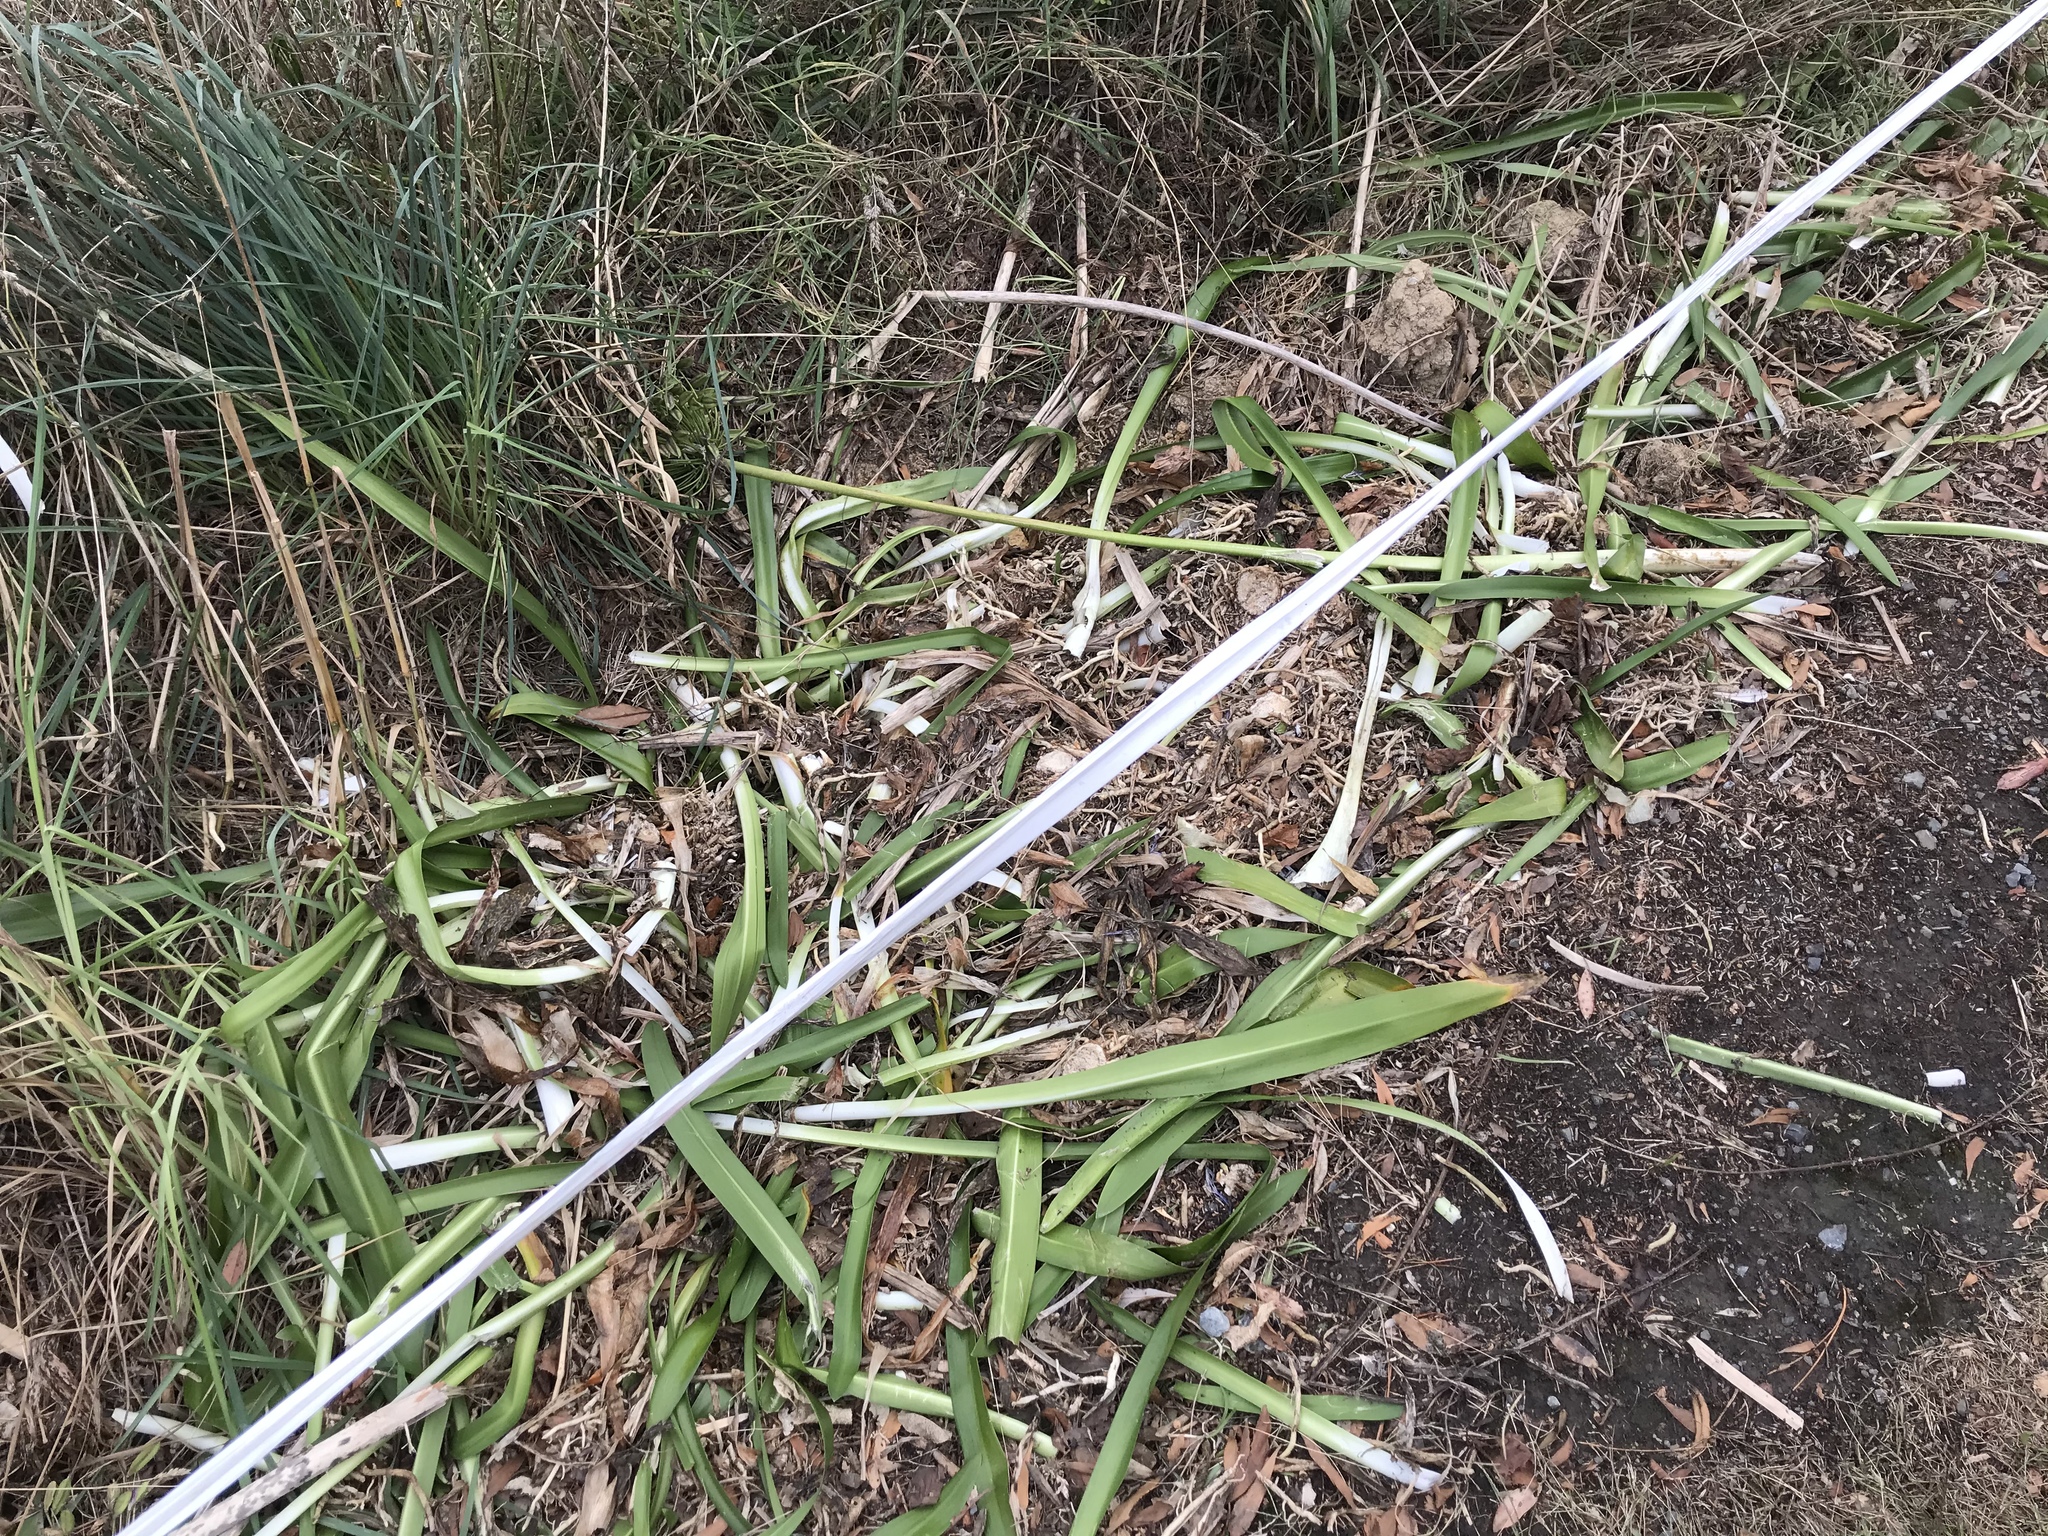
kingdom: Plantae
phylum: Tracheophyta
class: Liliopsida
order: Asparagales
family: Amaryllidaceae
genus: Agapanthus
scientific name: Agapanthus praecox
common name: African-lily
